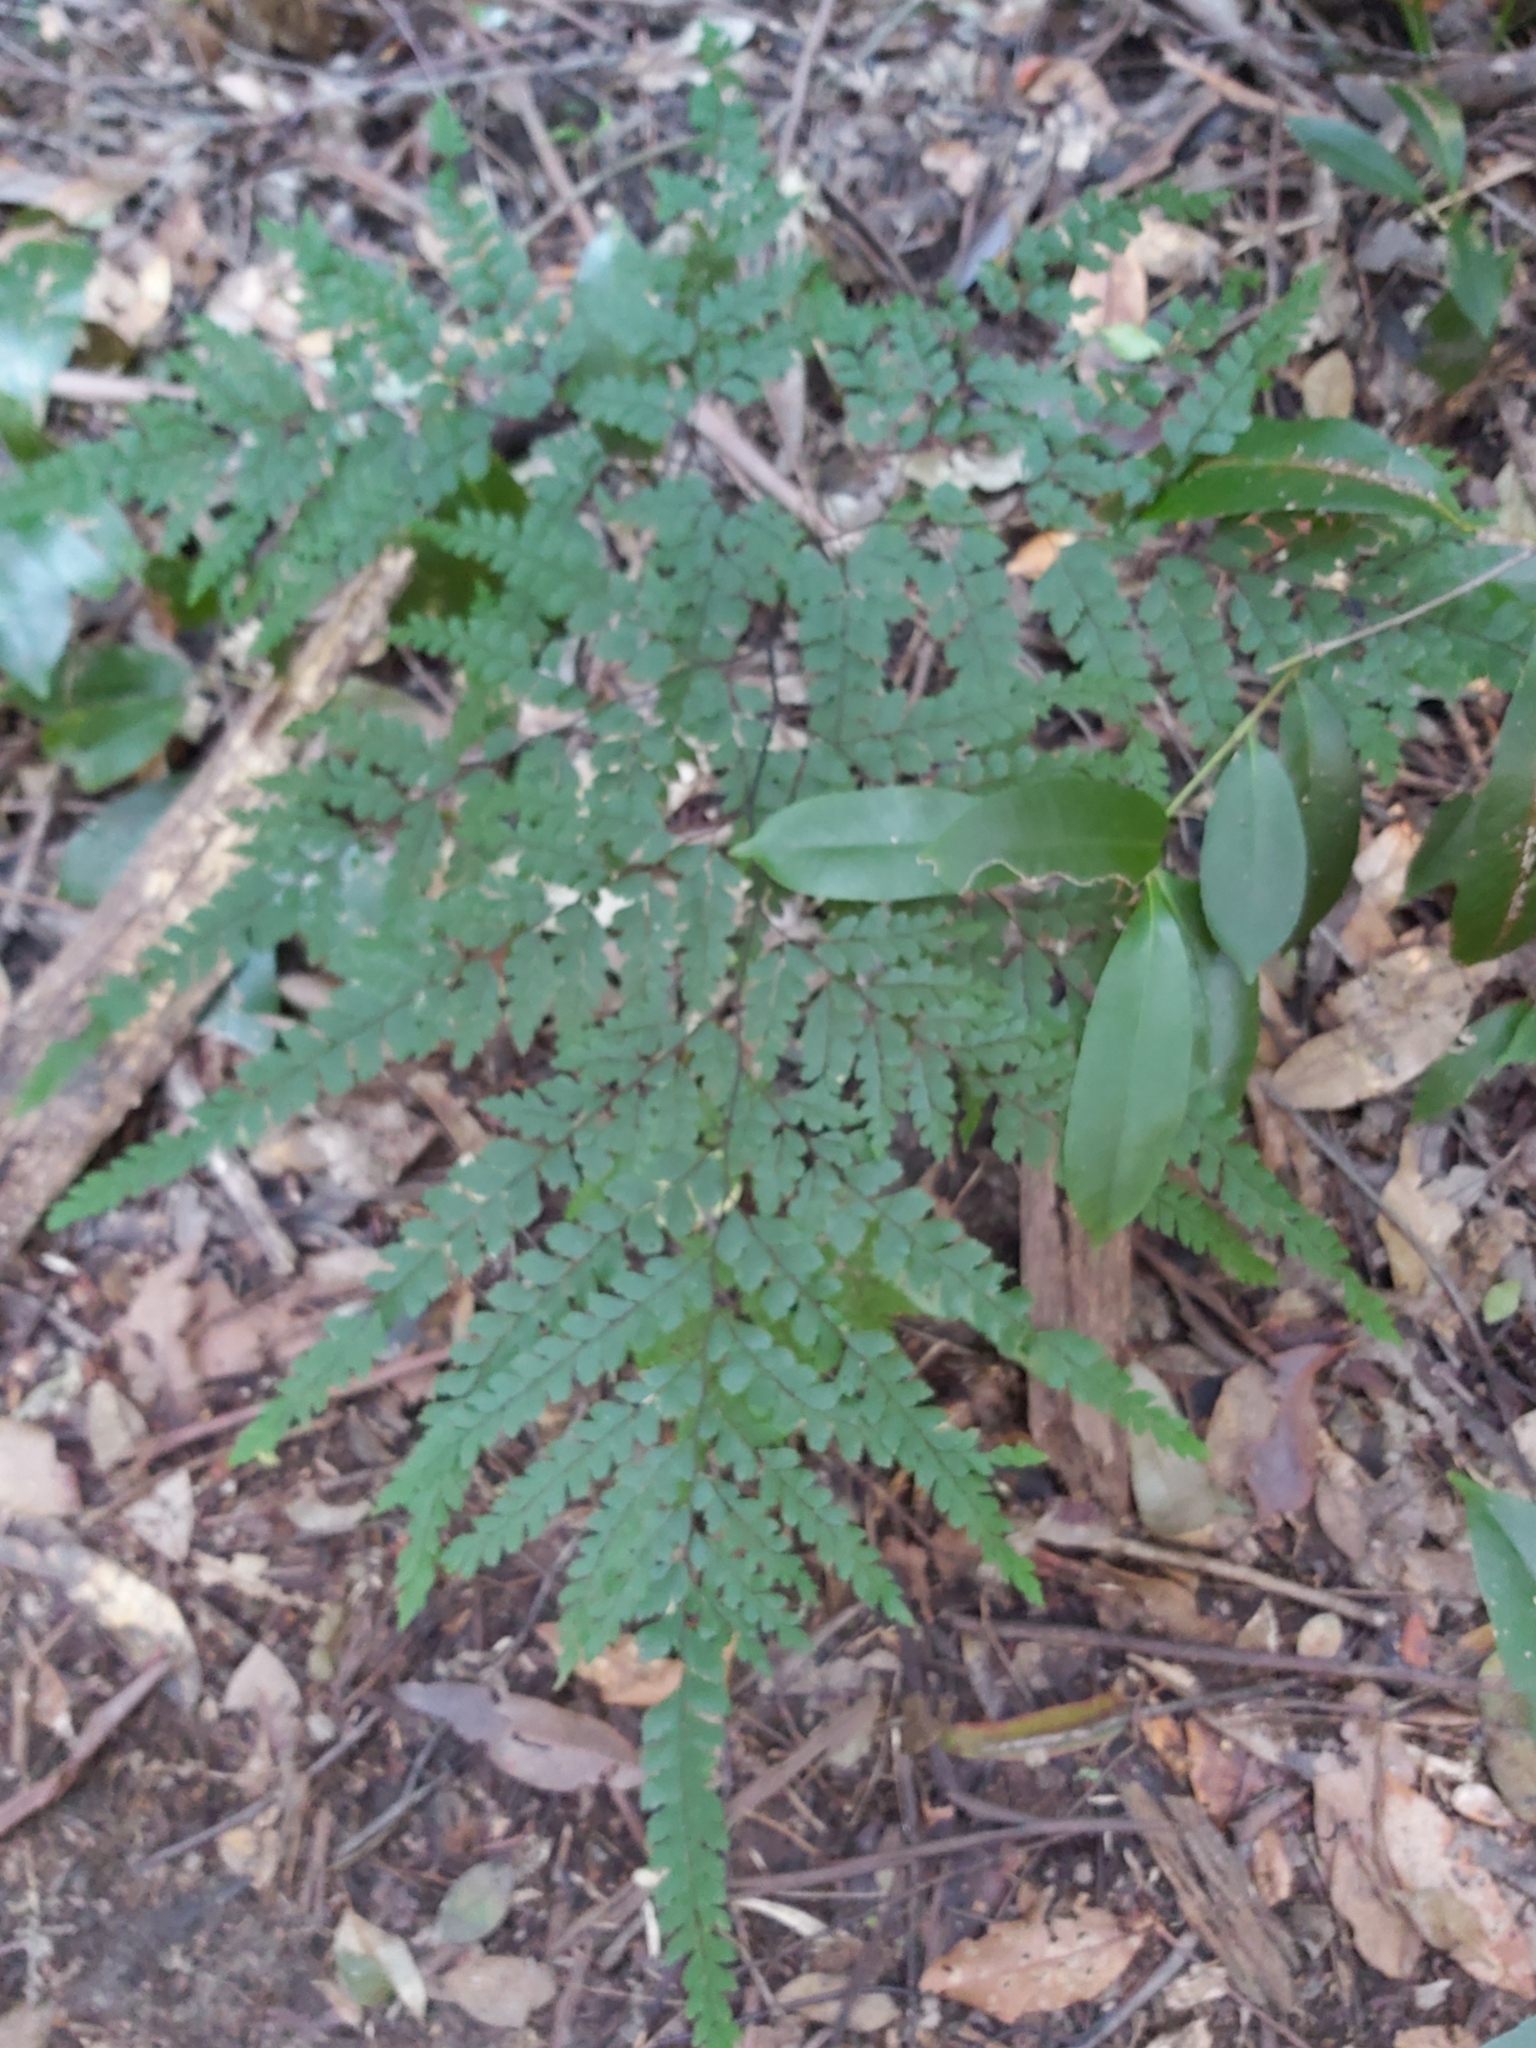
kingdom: Plantae
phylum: Tracheophyta
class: Polypodiopsida
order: Polypodiales
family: Pteridaceae
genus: Adiantum
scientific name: Adiantum formosum
